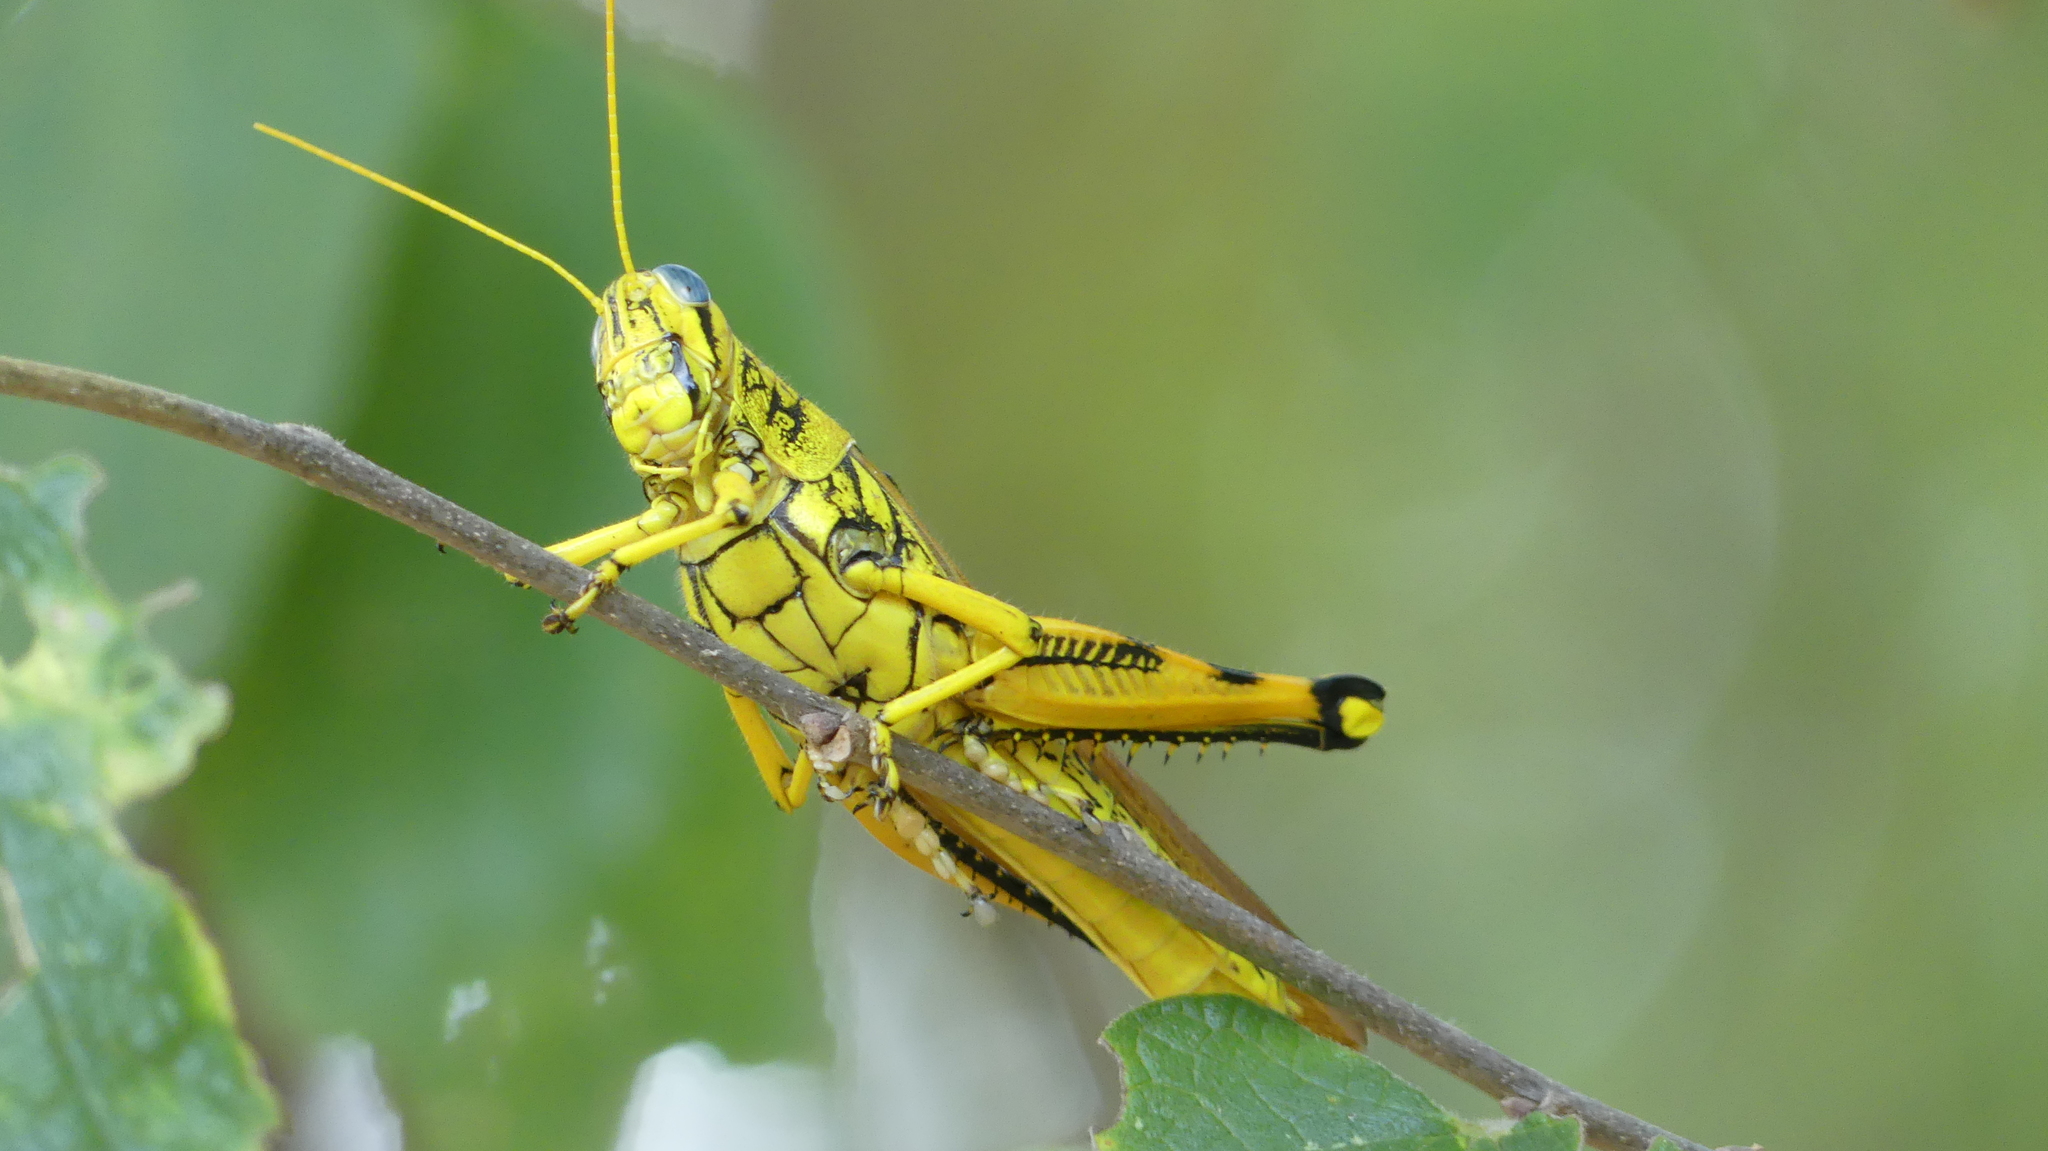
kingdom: Animalia
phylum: Arthropoda
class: Insecta
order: Orthoptera
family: Acrididae
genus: Schistocerca
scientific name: Schistocerca lineata
